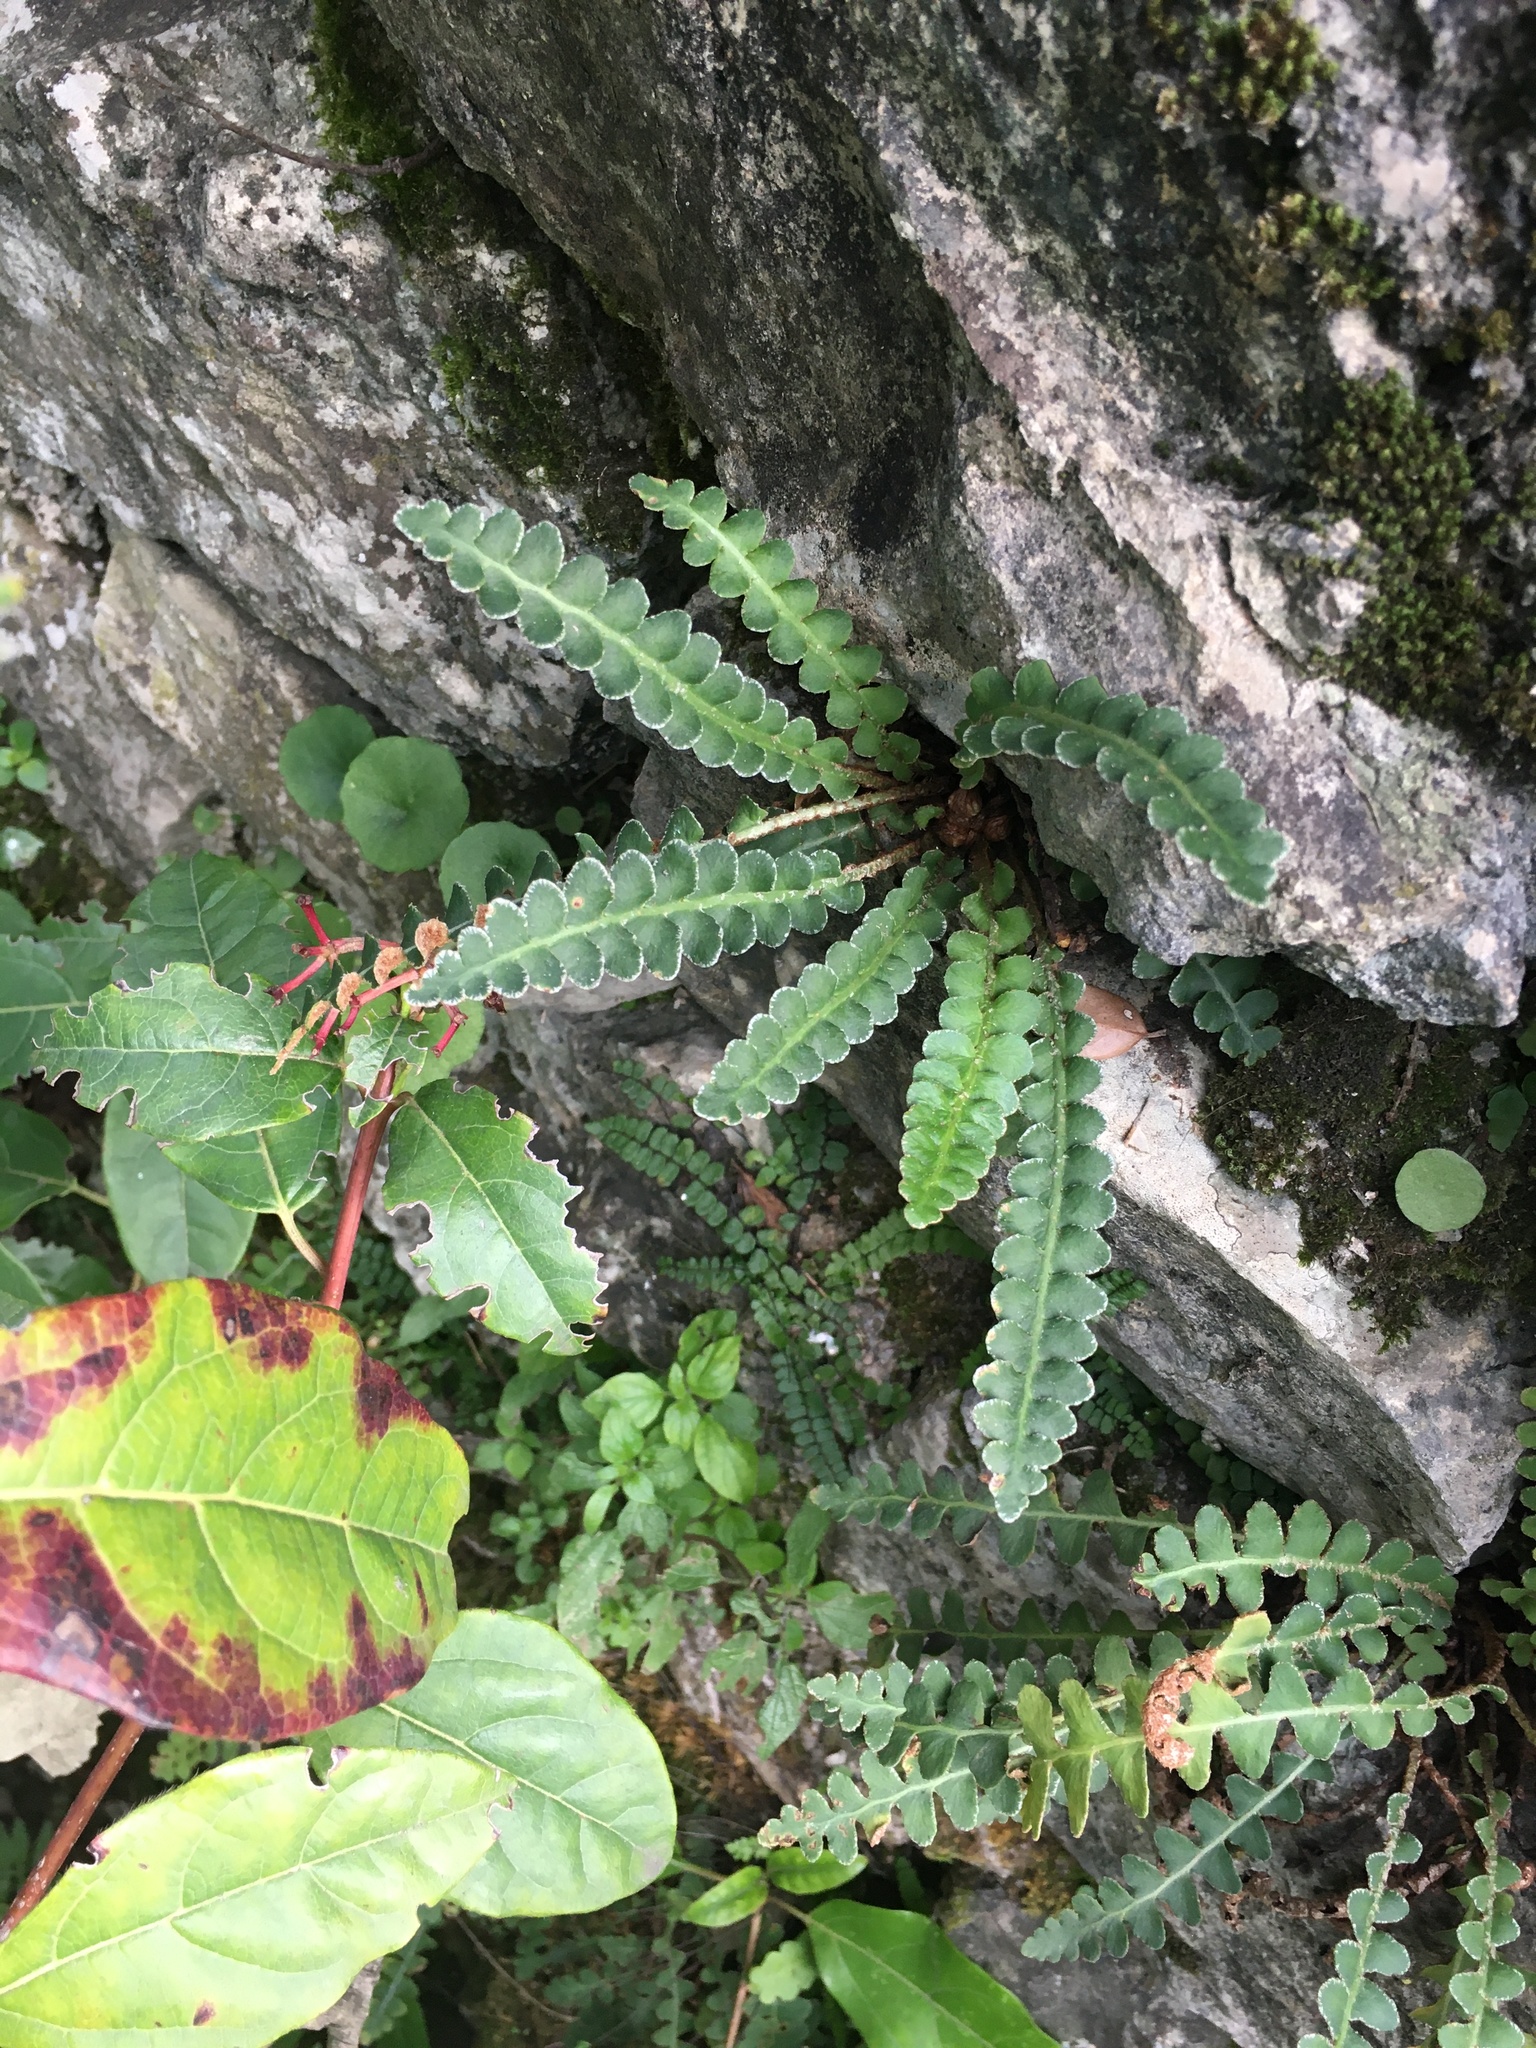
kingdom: Plantae
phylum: Tracheophyta
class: Polypodiopsida
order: Polypodiales
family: Aspleniaceae
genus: Asplenium
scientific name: Asplenium ceterach
